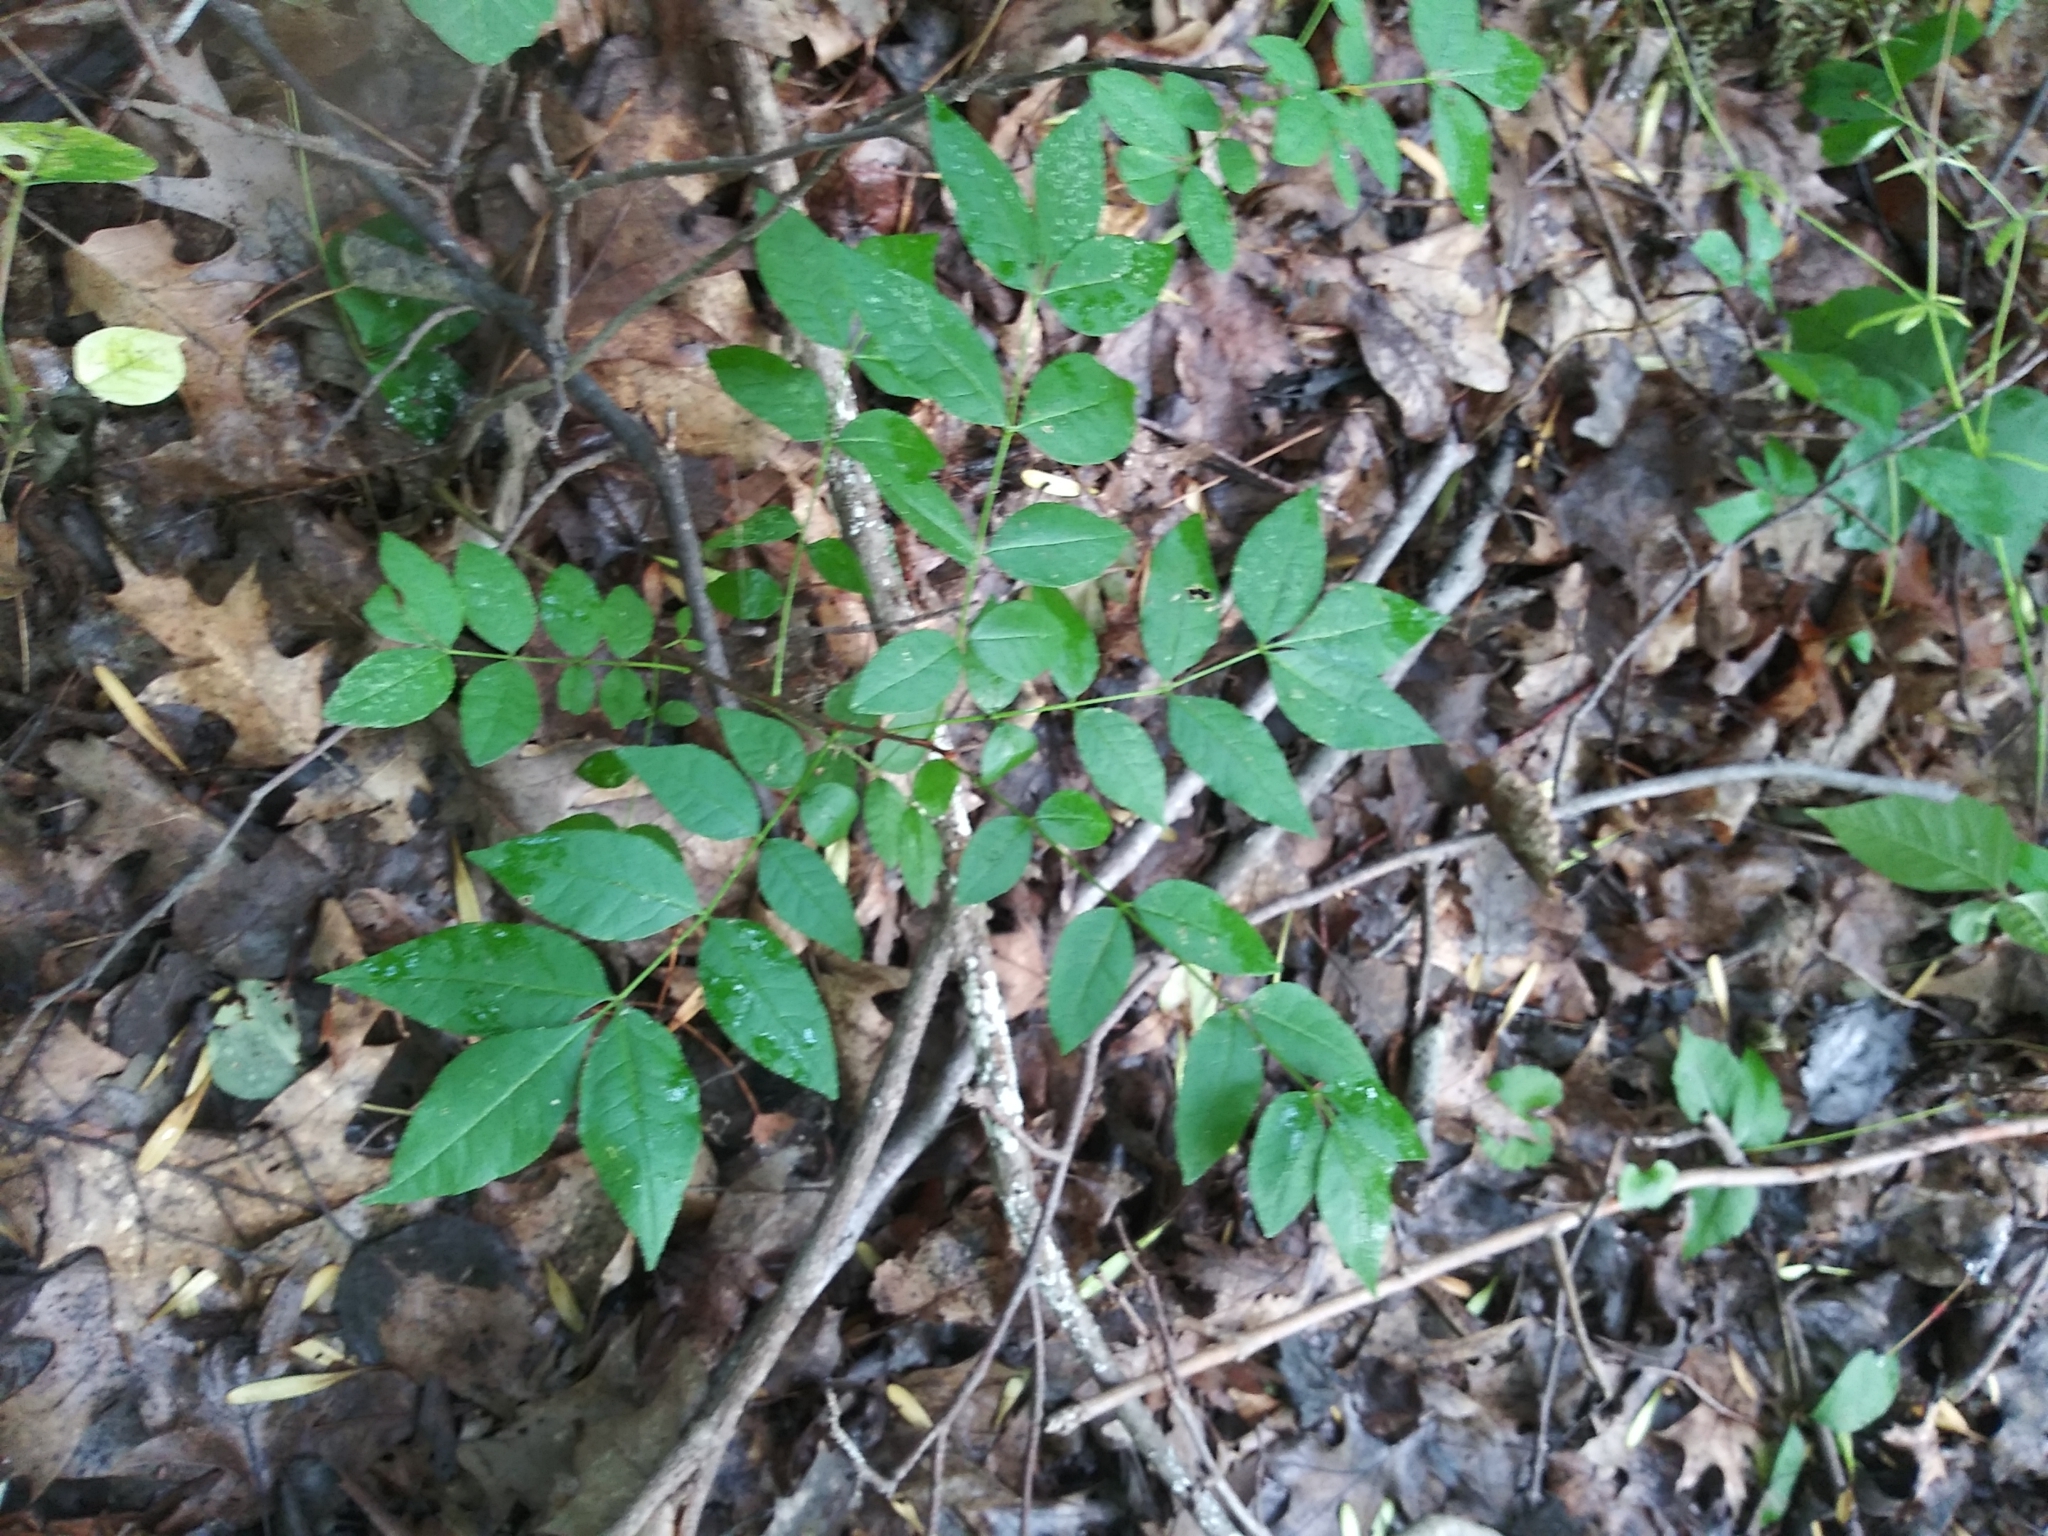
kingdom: Plantae
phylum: Tracheophyta
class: Magnoliopsida
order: Sapindales
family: Rutaceae
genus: Zanthoxylum
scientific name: Zanthoxylum americanum
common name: Northern prickly-ash
